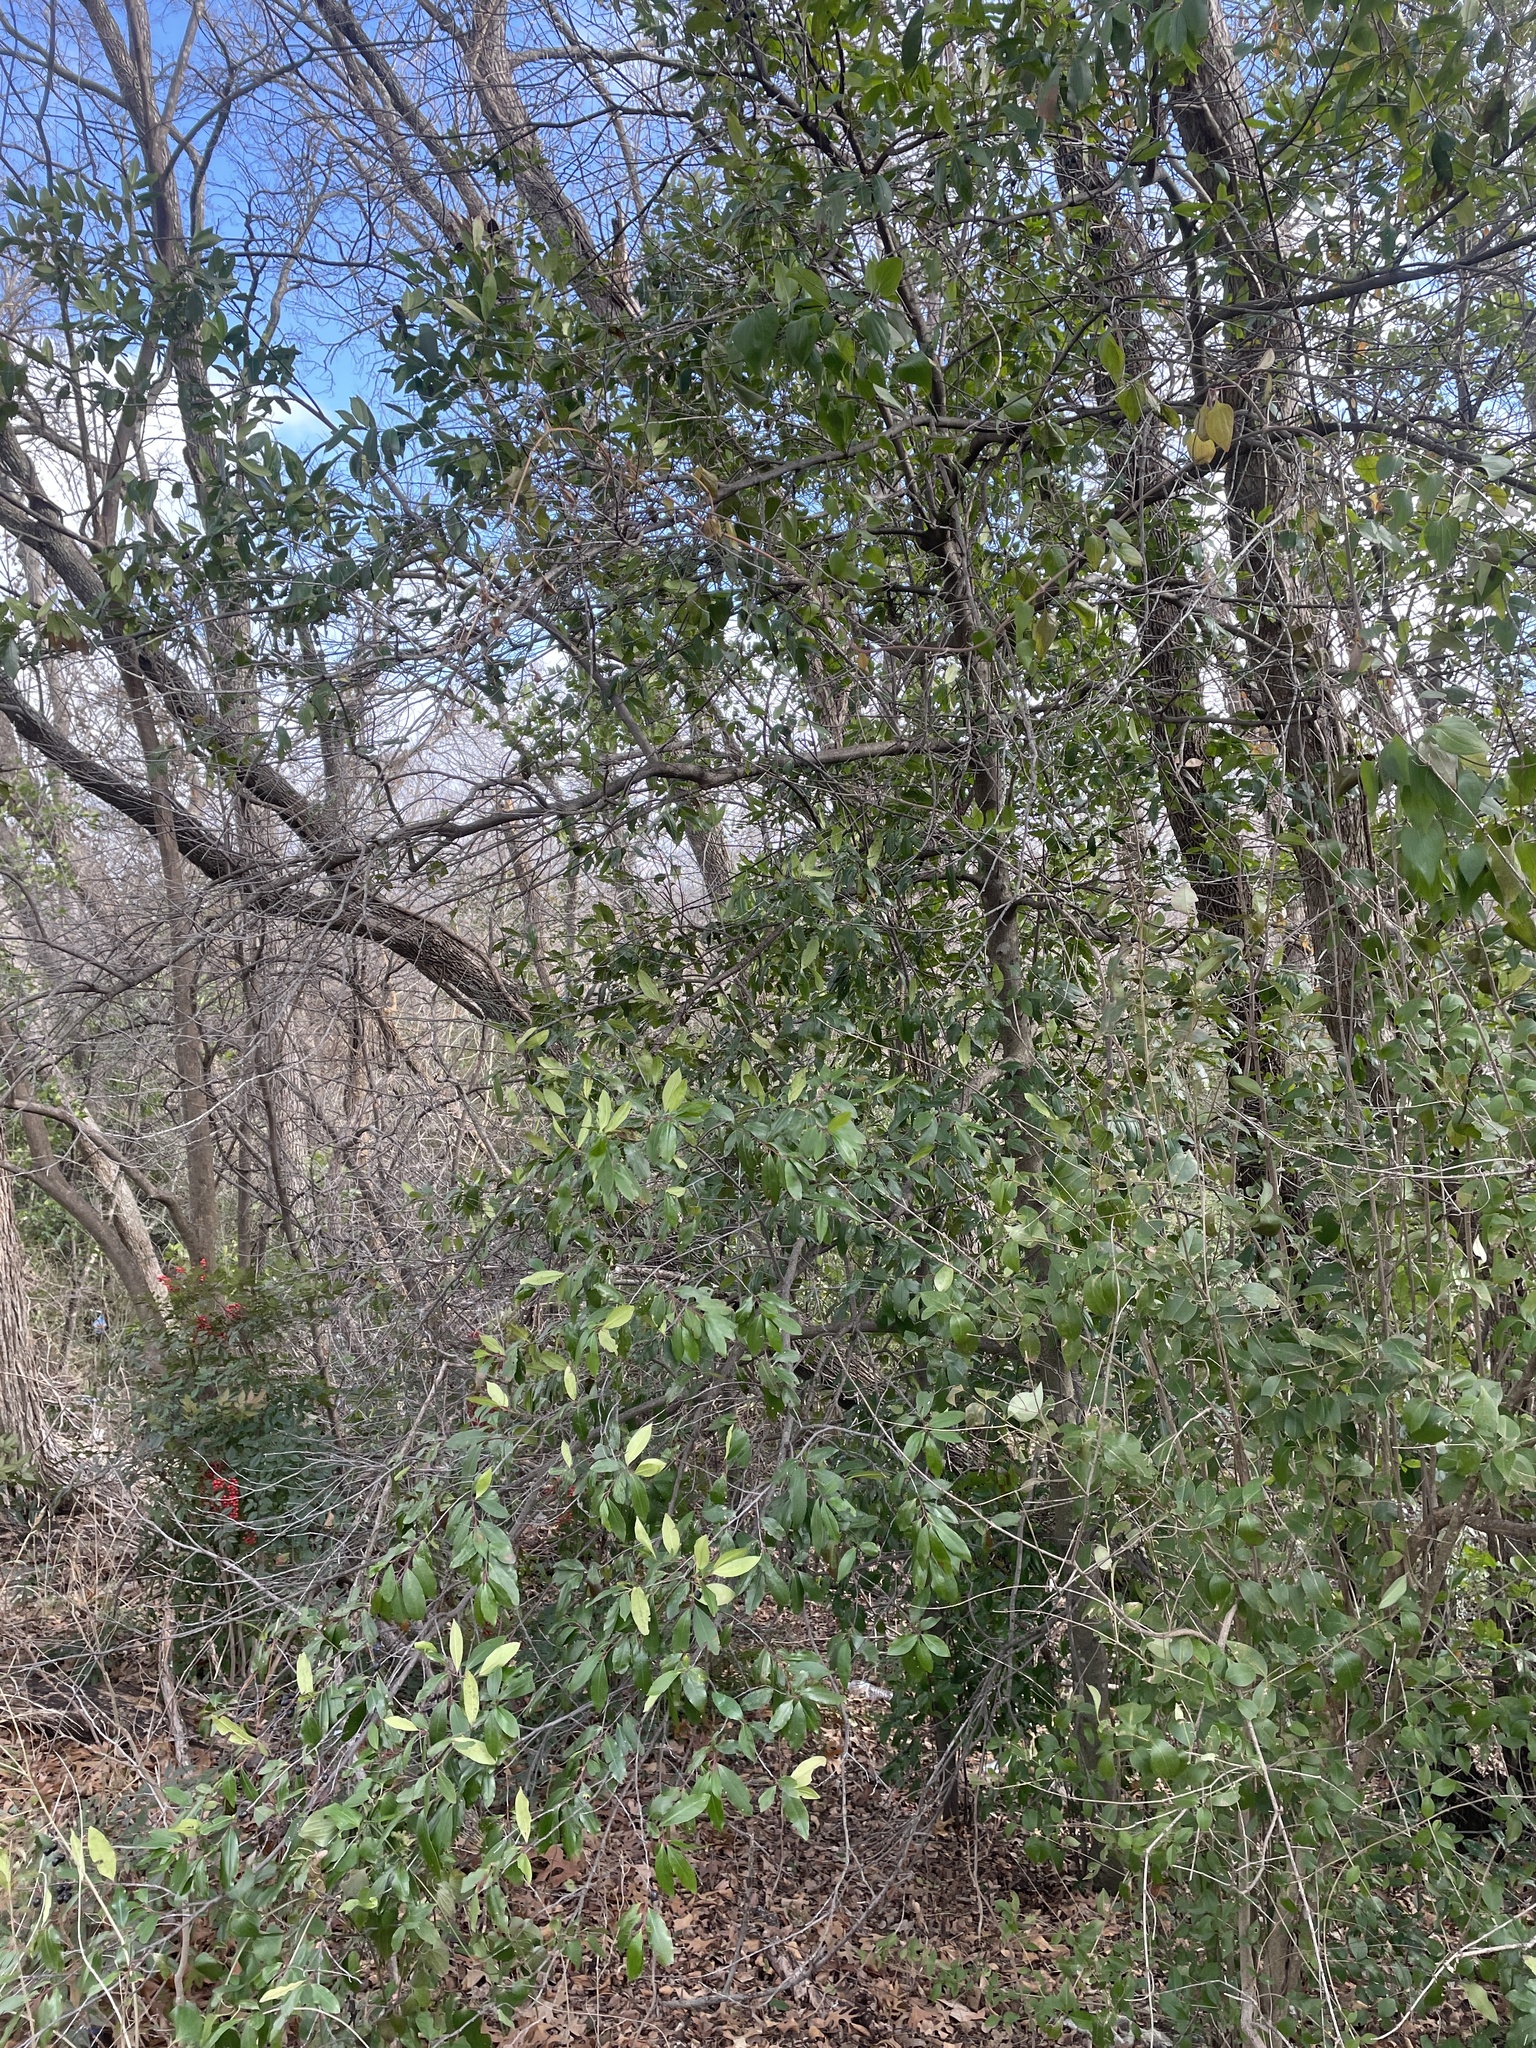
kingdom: Plantae
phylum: Tracheophyta
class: Magnoliopsida
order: Rosales
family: Rosaceae
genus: Prunus
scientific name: Prunus caroliniana
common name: Carolina laurel cherry
